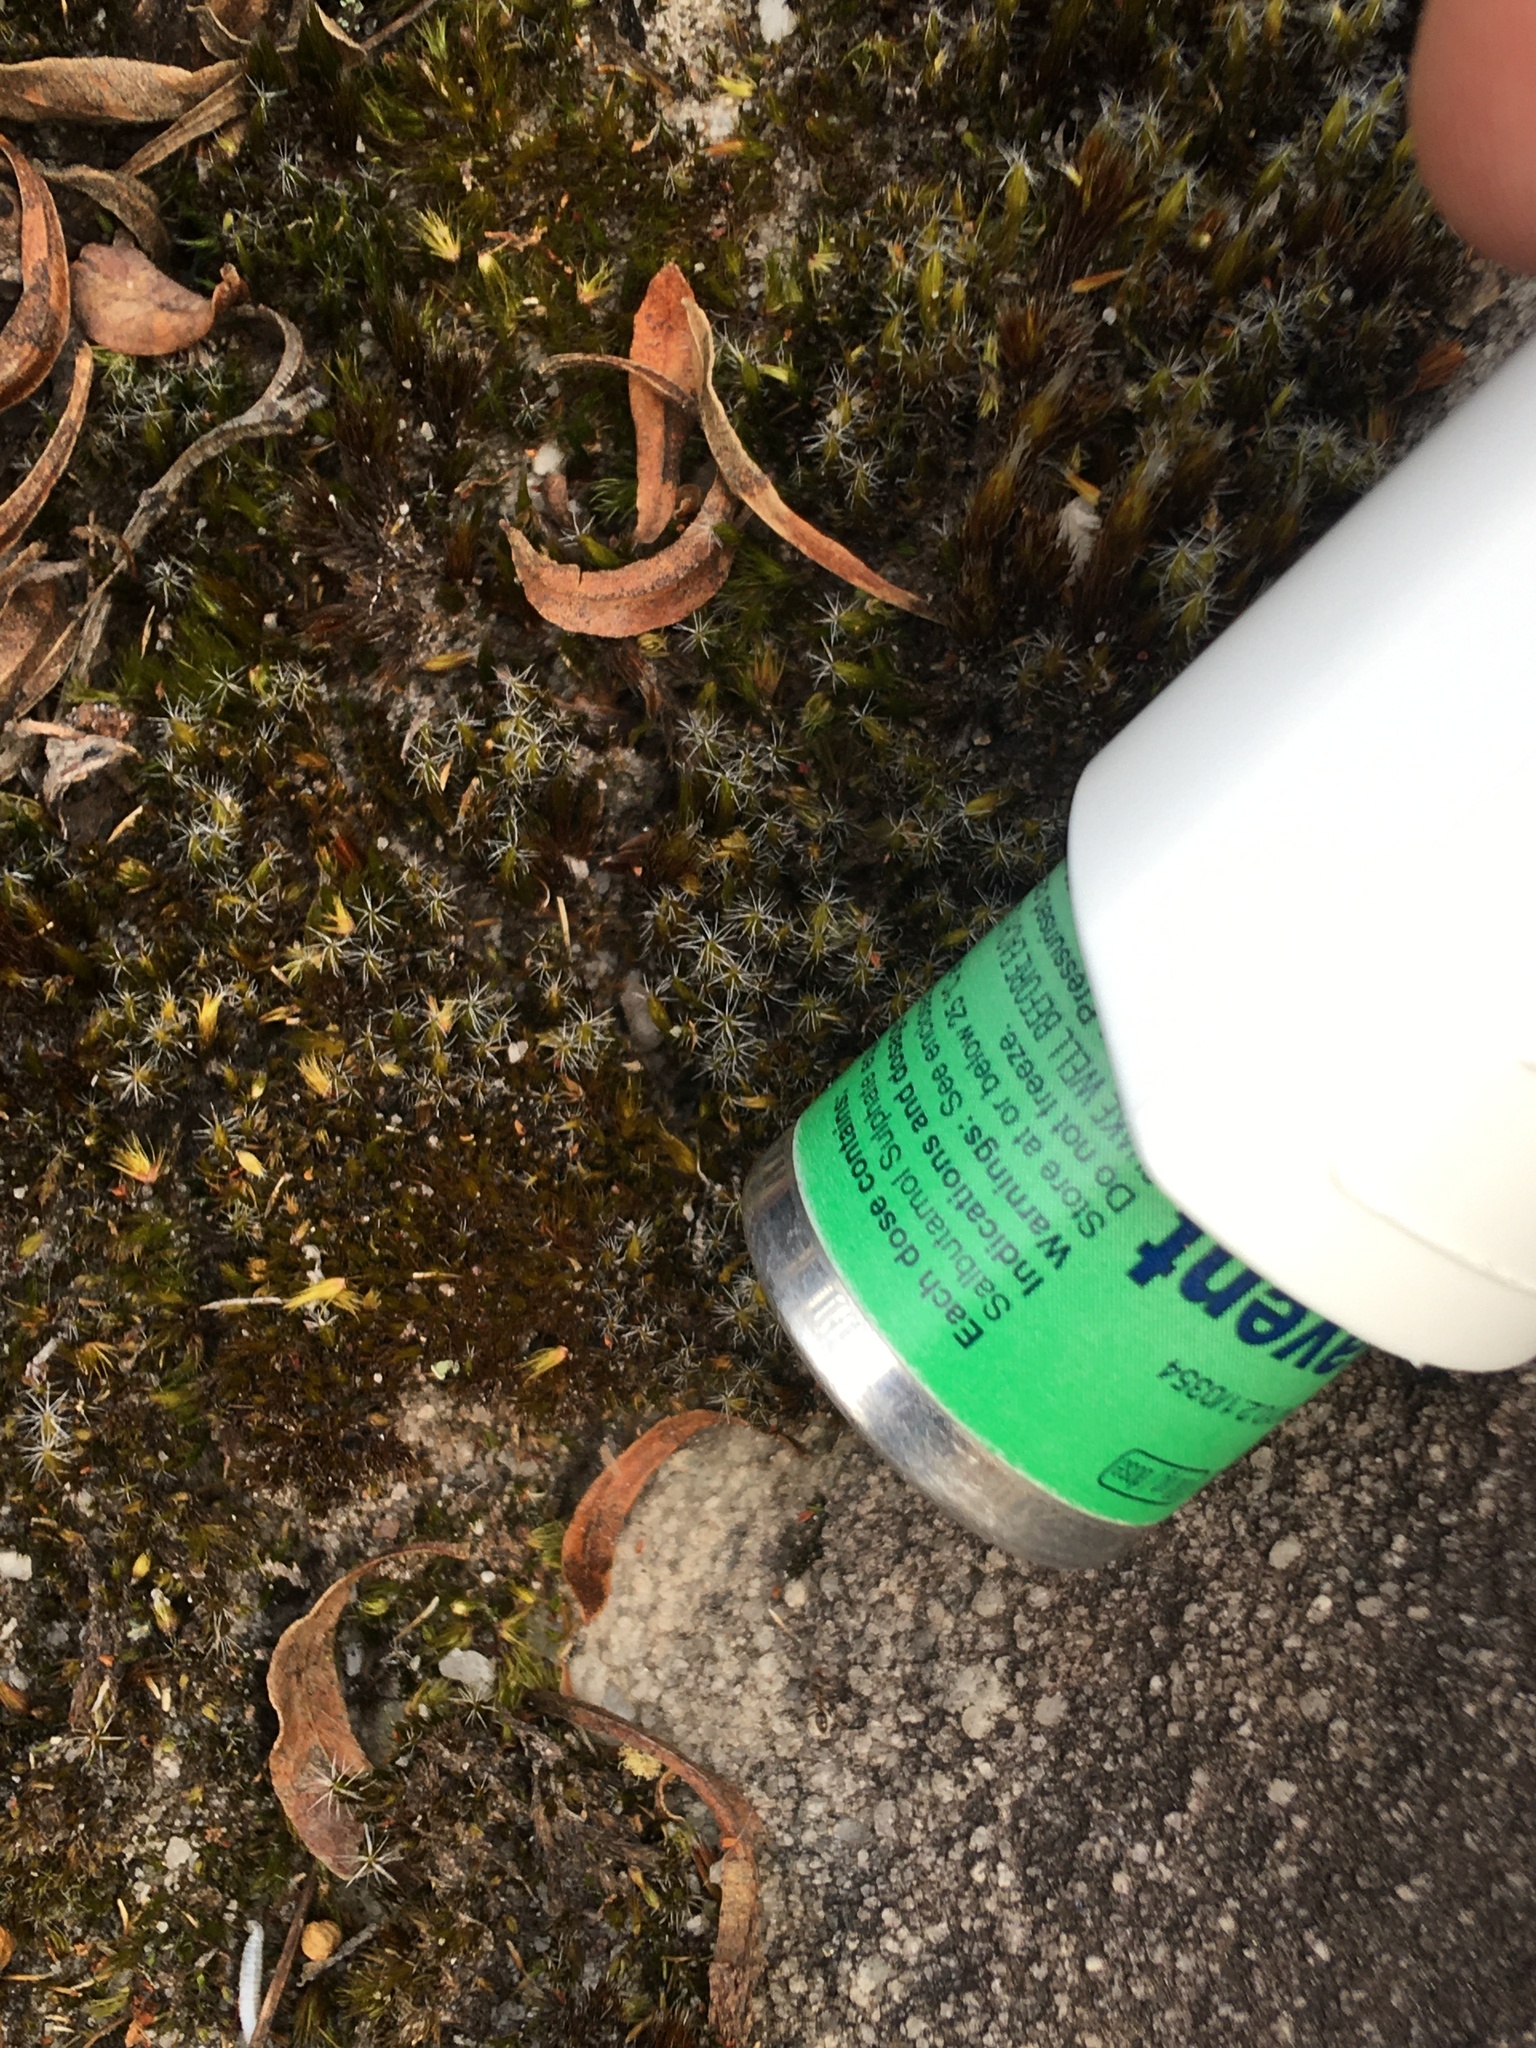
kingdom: Plantae
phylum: Bryophyta
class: Bryopsida
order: Dicranales
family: Leucobryaceae
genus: Campylopus
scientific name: Campylopus introflexus
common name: Heath star moss
